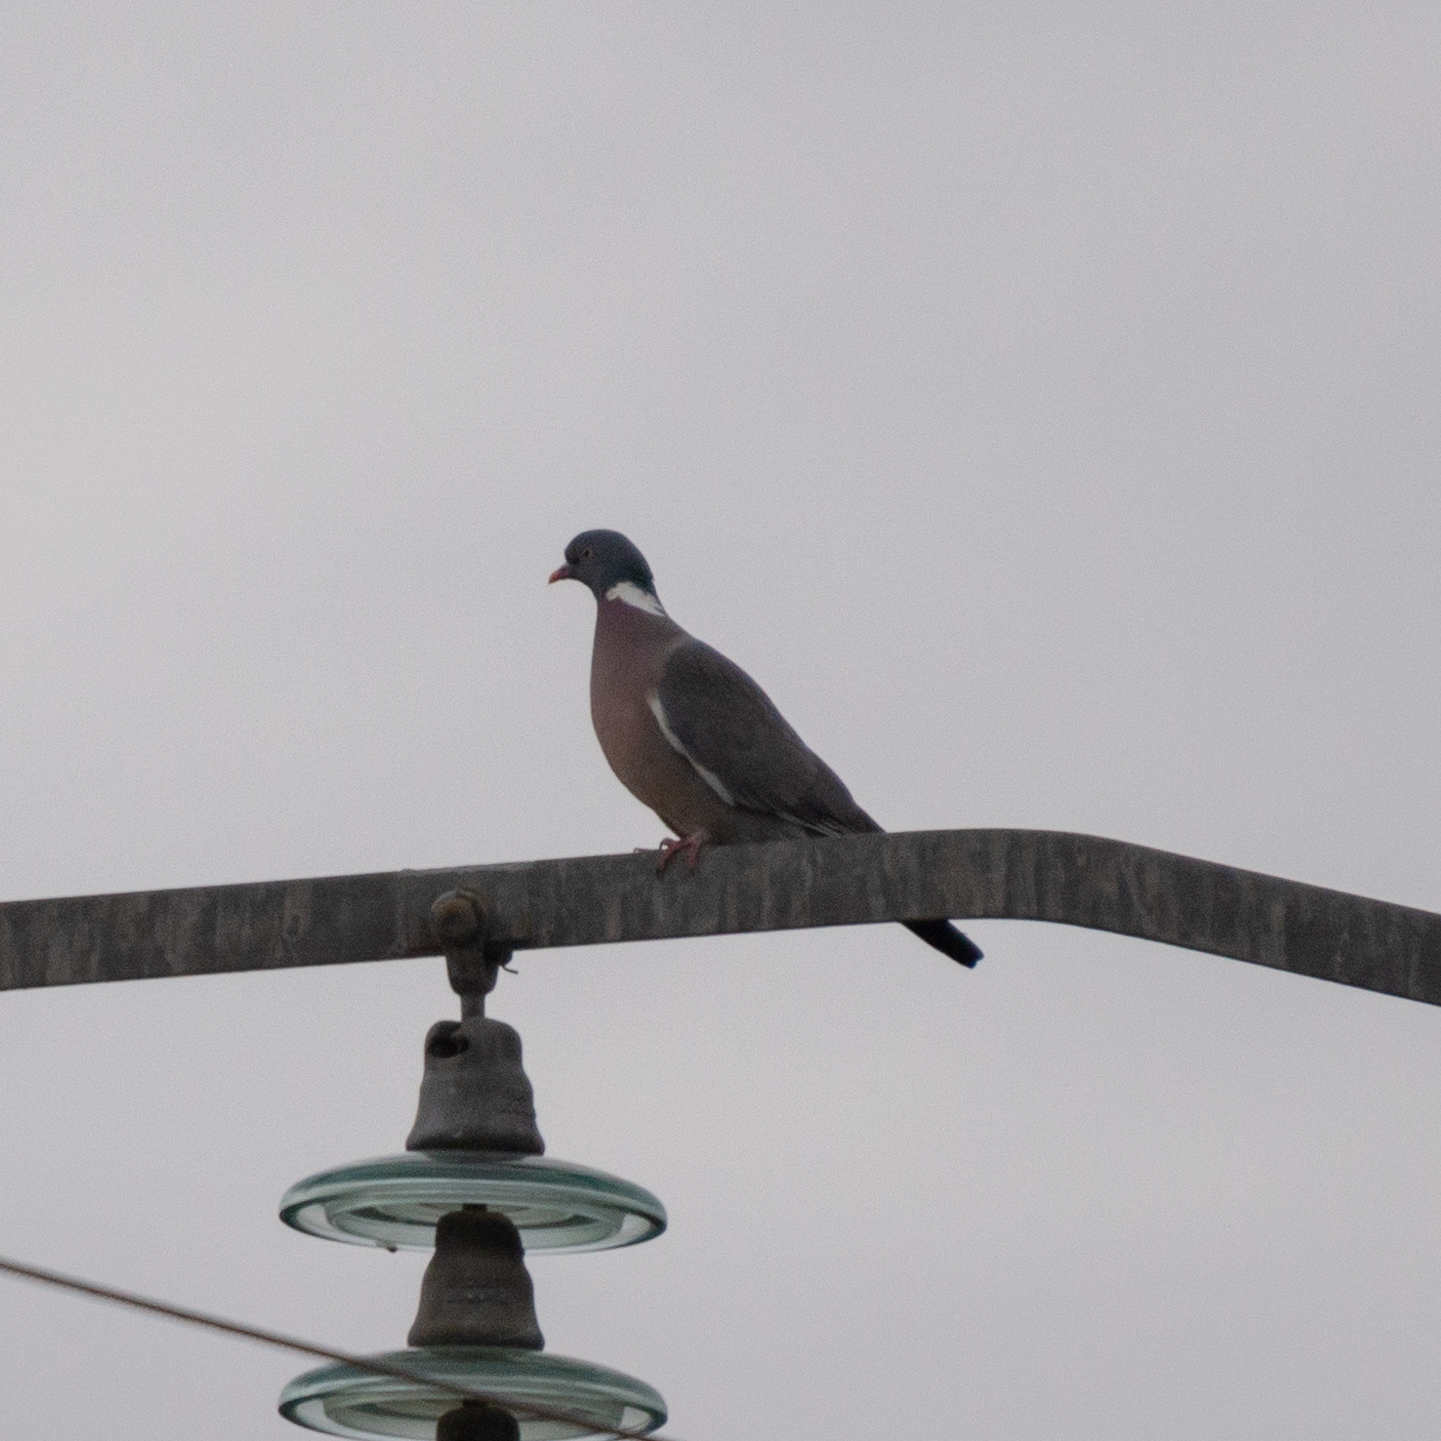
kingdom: Animalia
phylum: Chordata
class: Aves
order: Columbiformes
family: Columbidae
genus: Columba
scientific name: Columba palumbus
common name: Common wood pigeon
